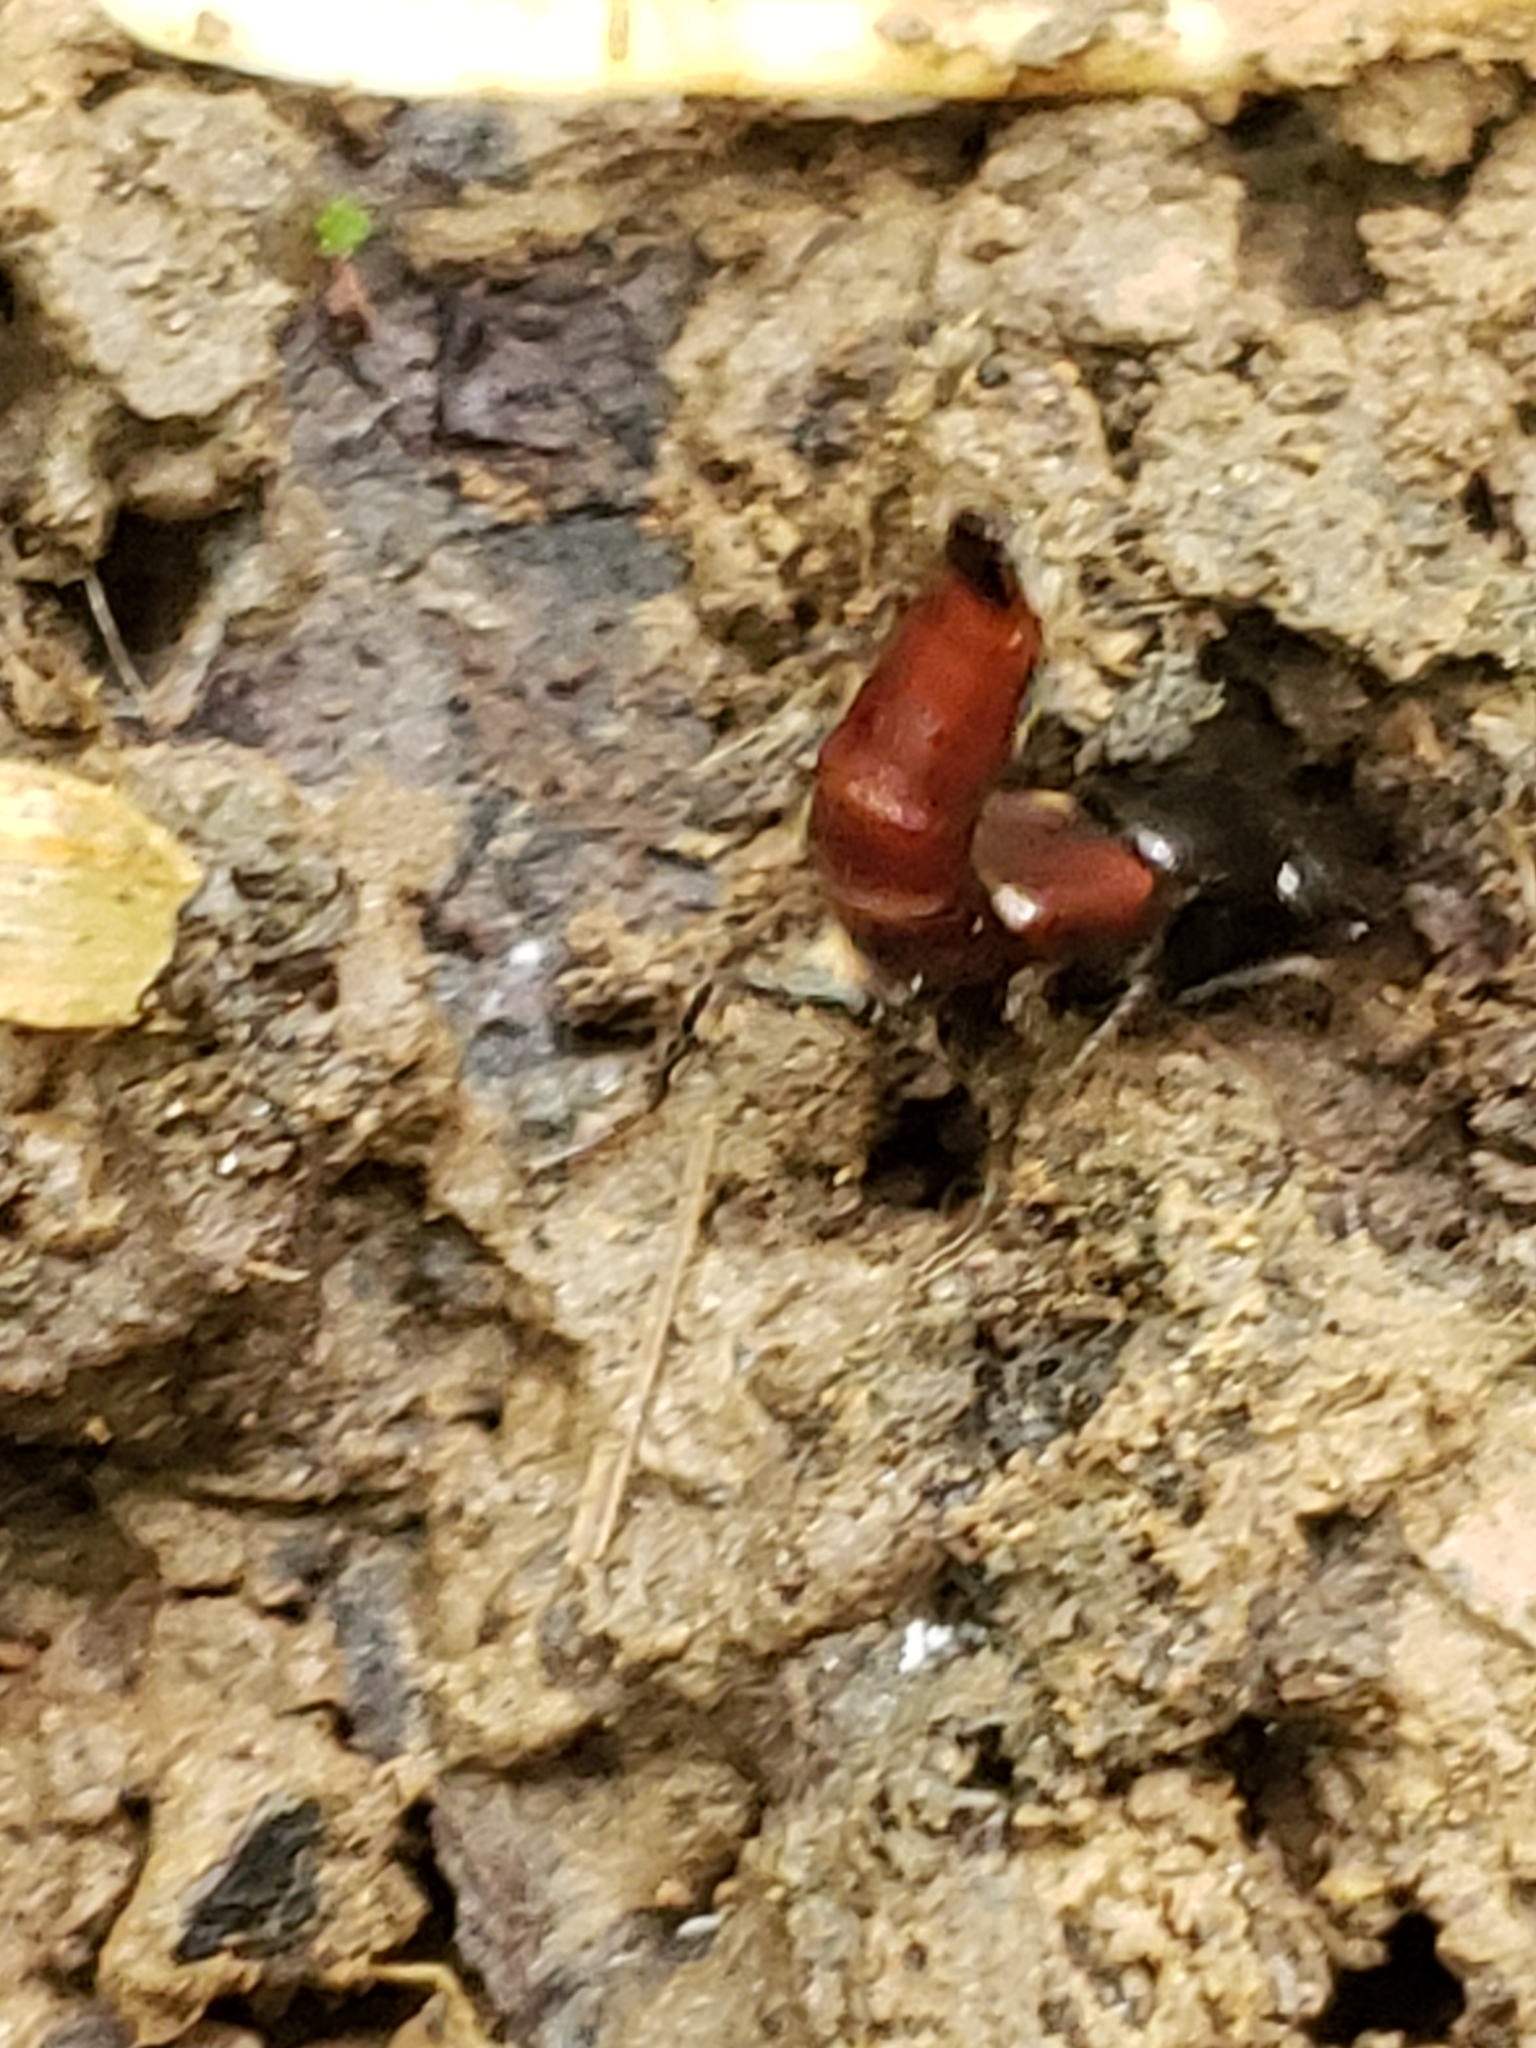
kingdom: Animalia
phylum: Arthropoda
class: Insecta
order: Coleoptera
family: Staphylinidae
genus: Hesperus
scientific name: Hesperus baltimorensis
